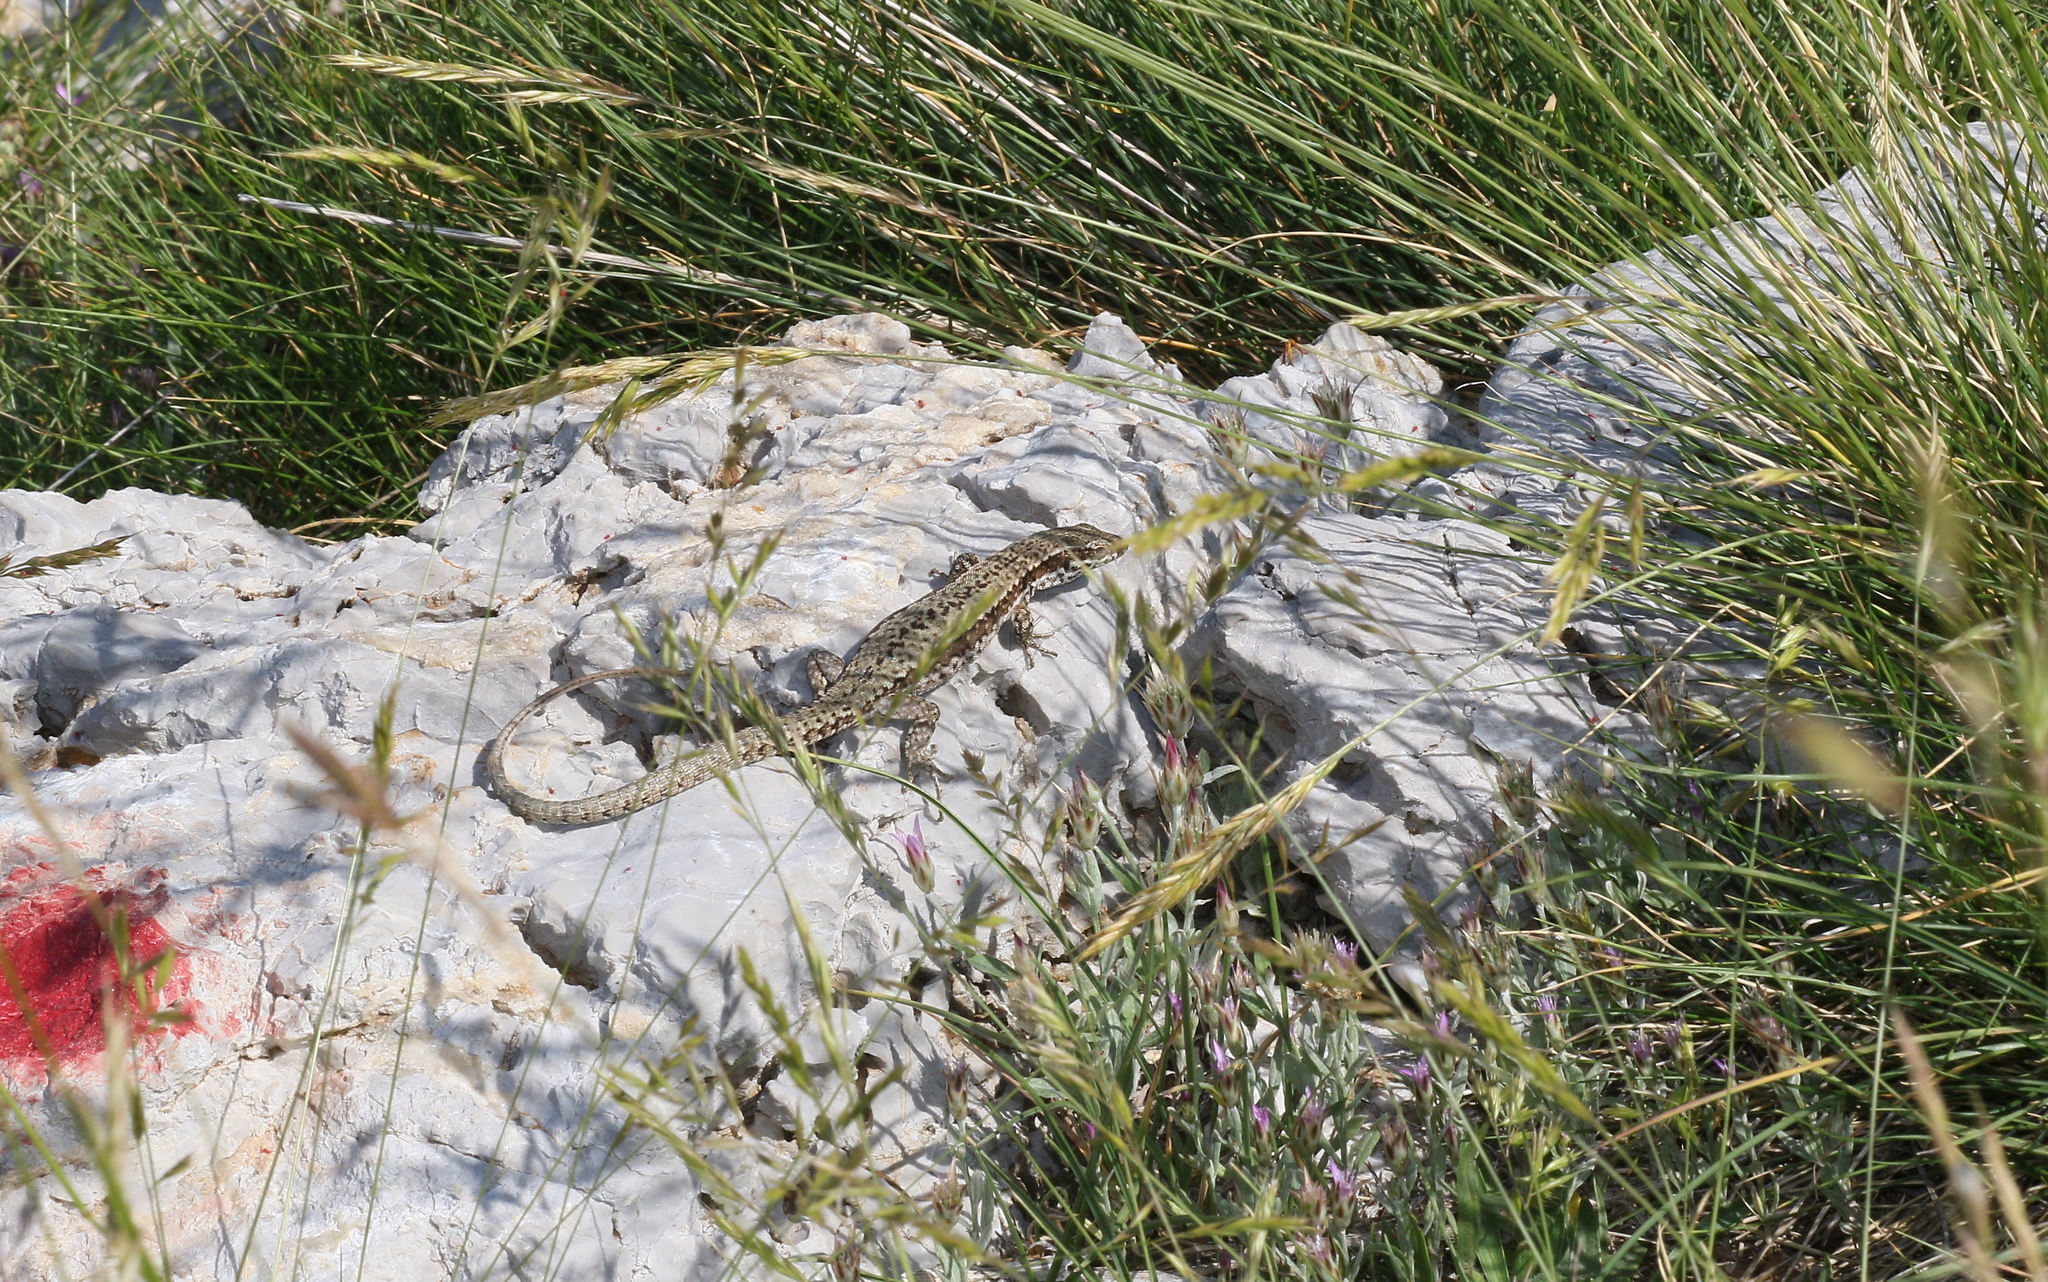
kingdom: Animalia
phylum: Chordata
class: Squamata
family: Lacertidae
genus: Podarcis
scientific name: Podarcis muralis
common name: Common wall lizard
